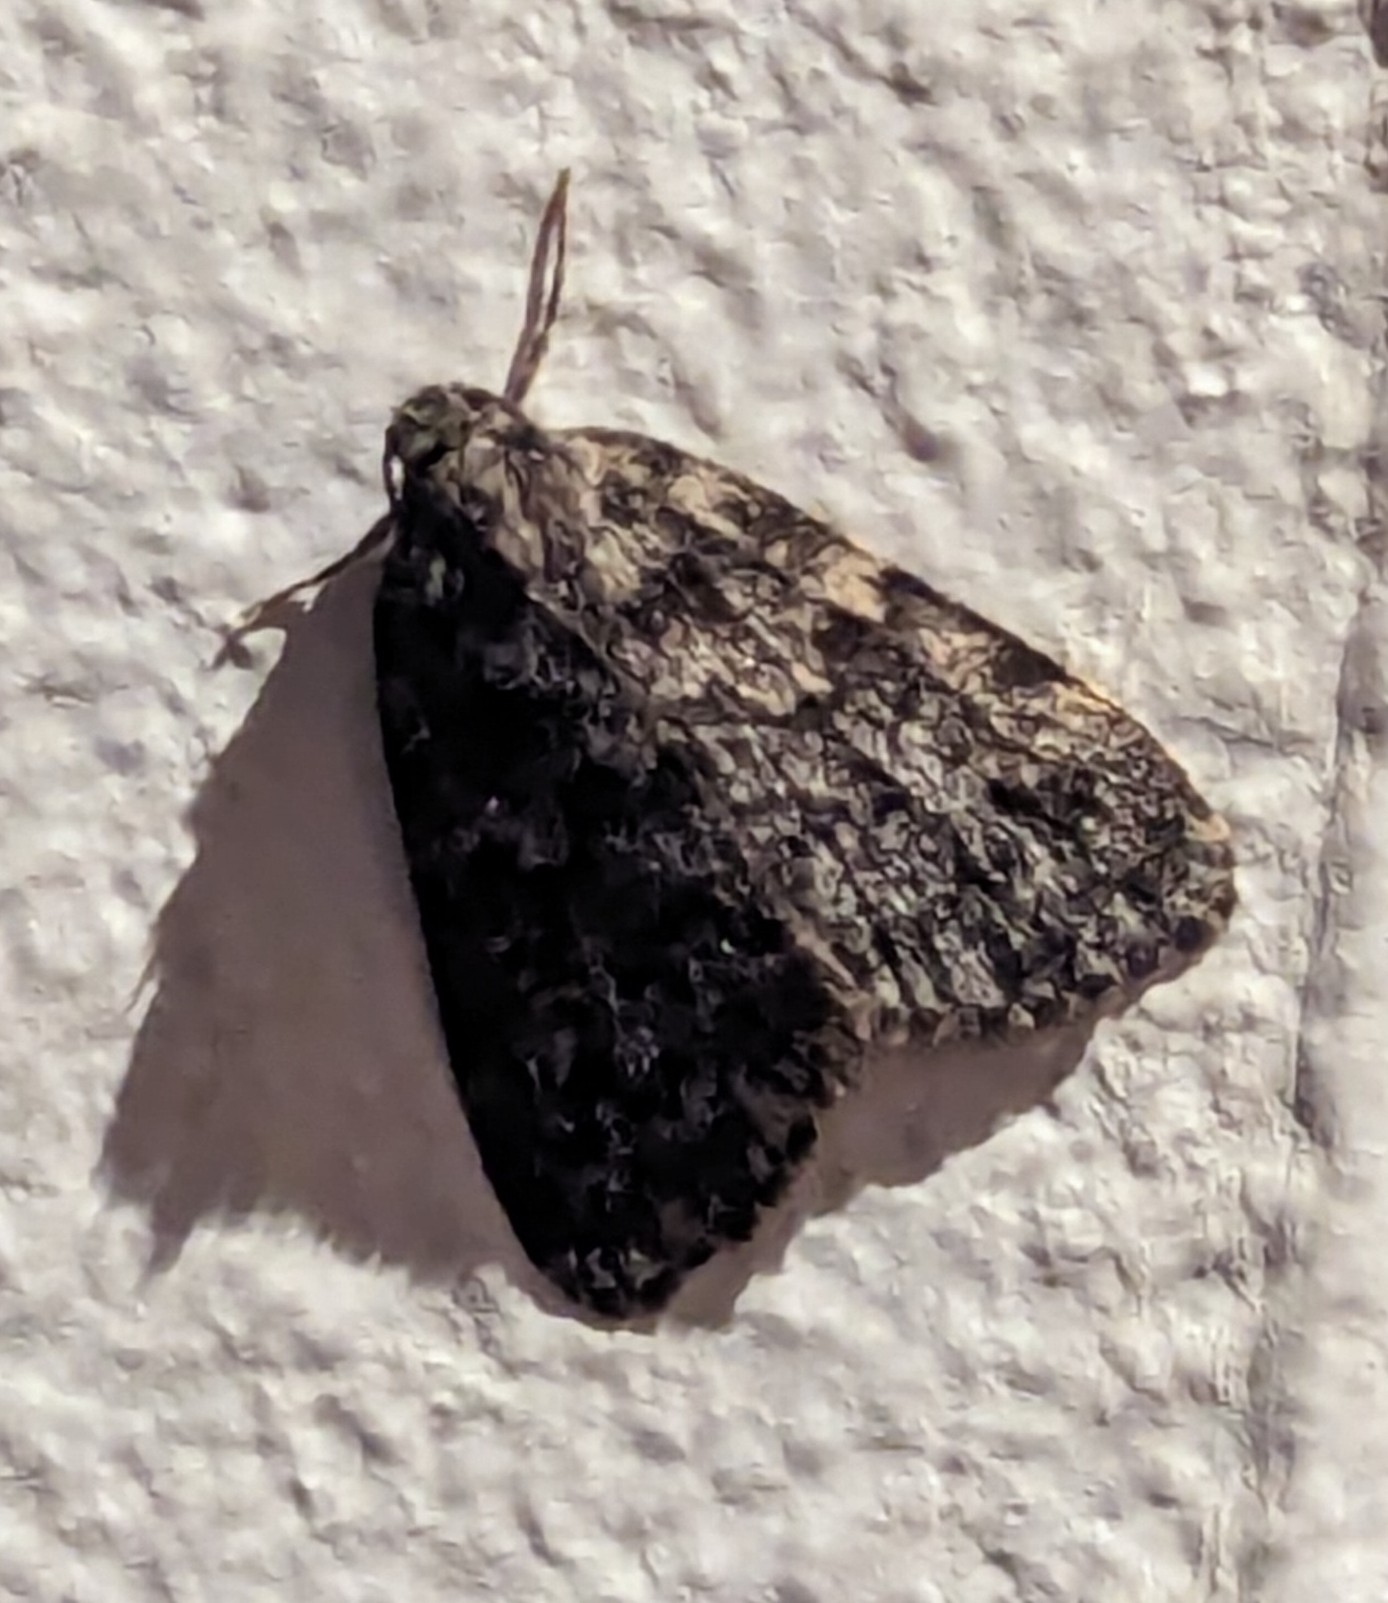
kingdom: Animalia
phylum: Arthropoda
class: Insecta
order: Lepidoptera
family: Erebidae
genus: Halone
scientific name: Halone consolatrix
